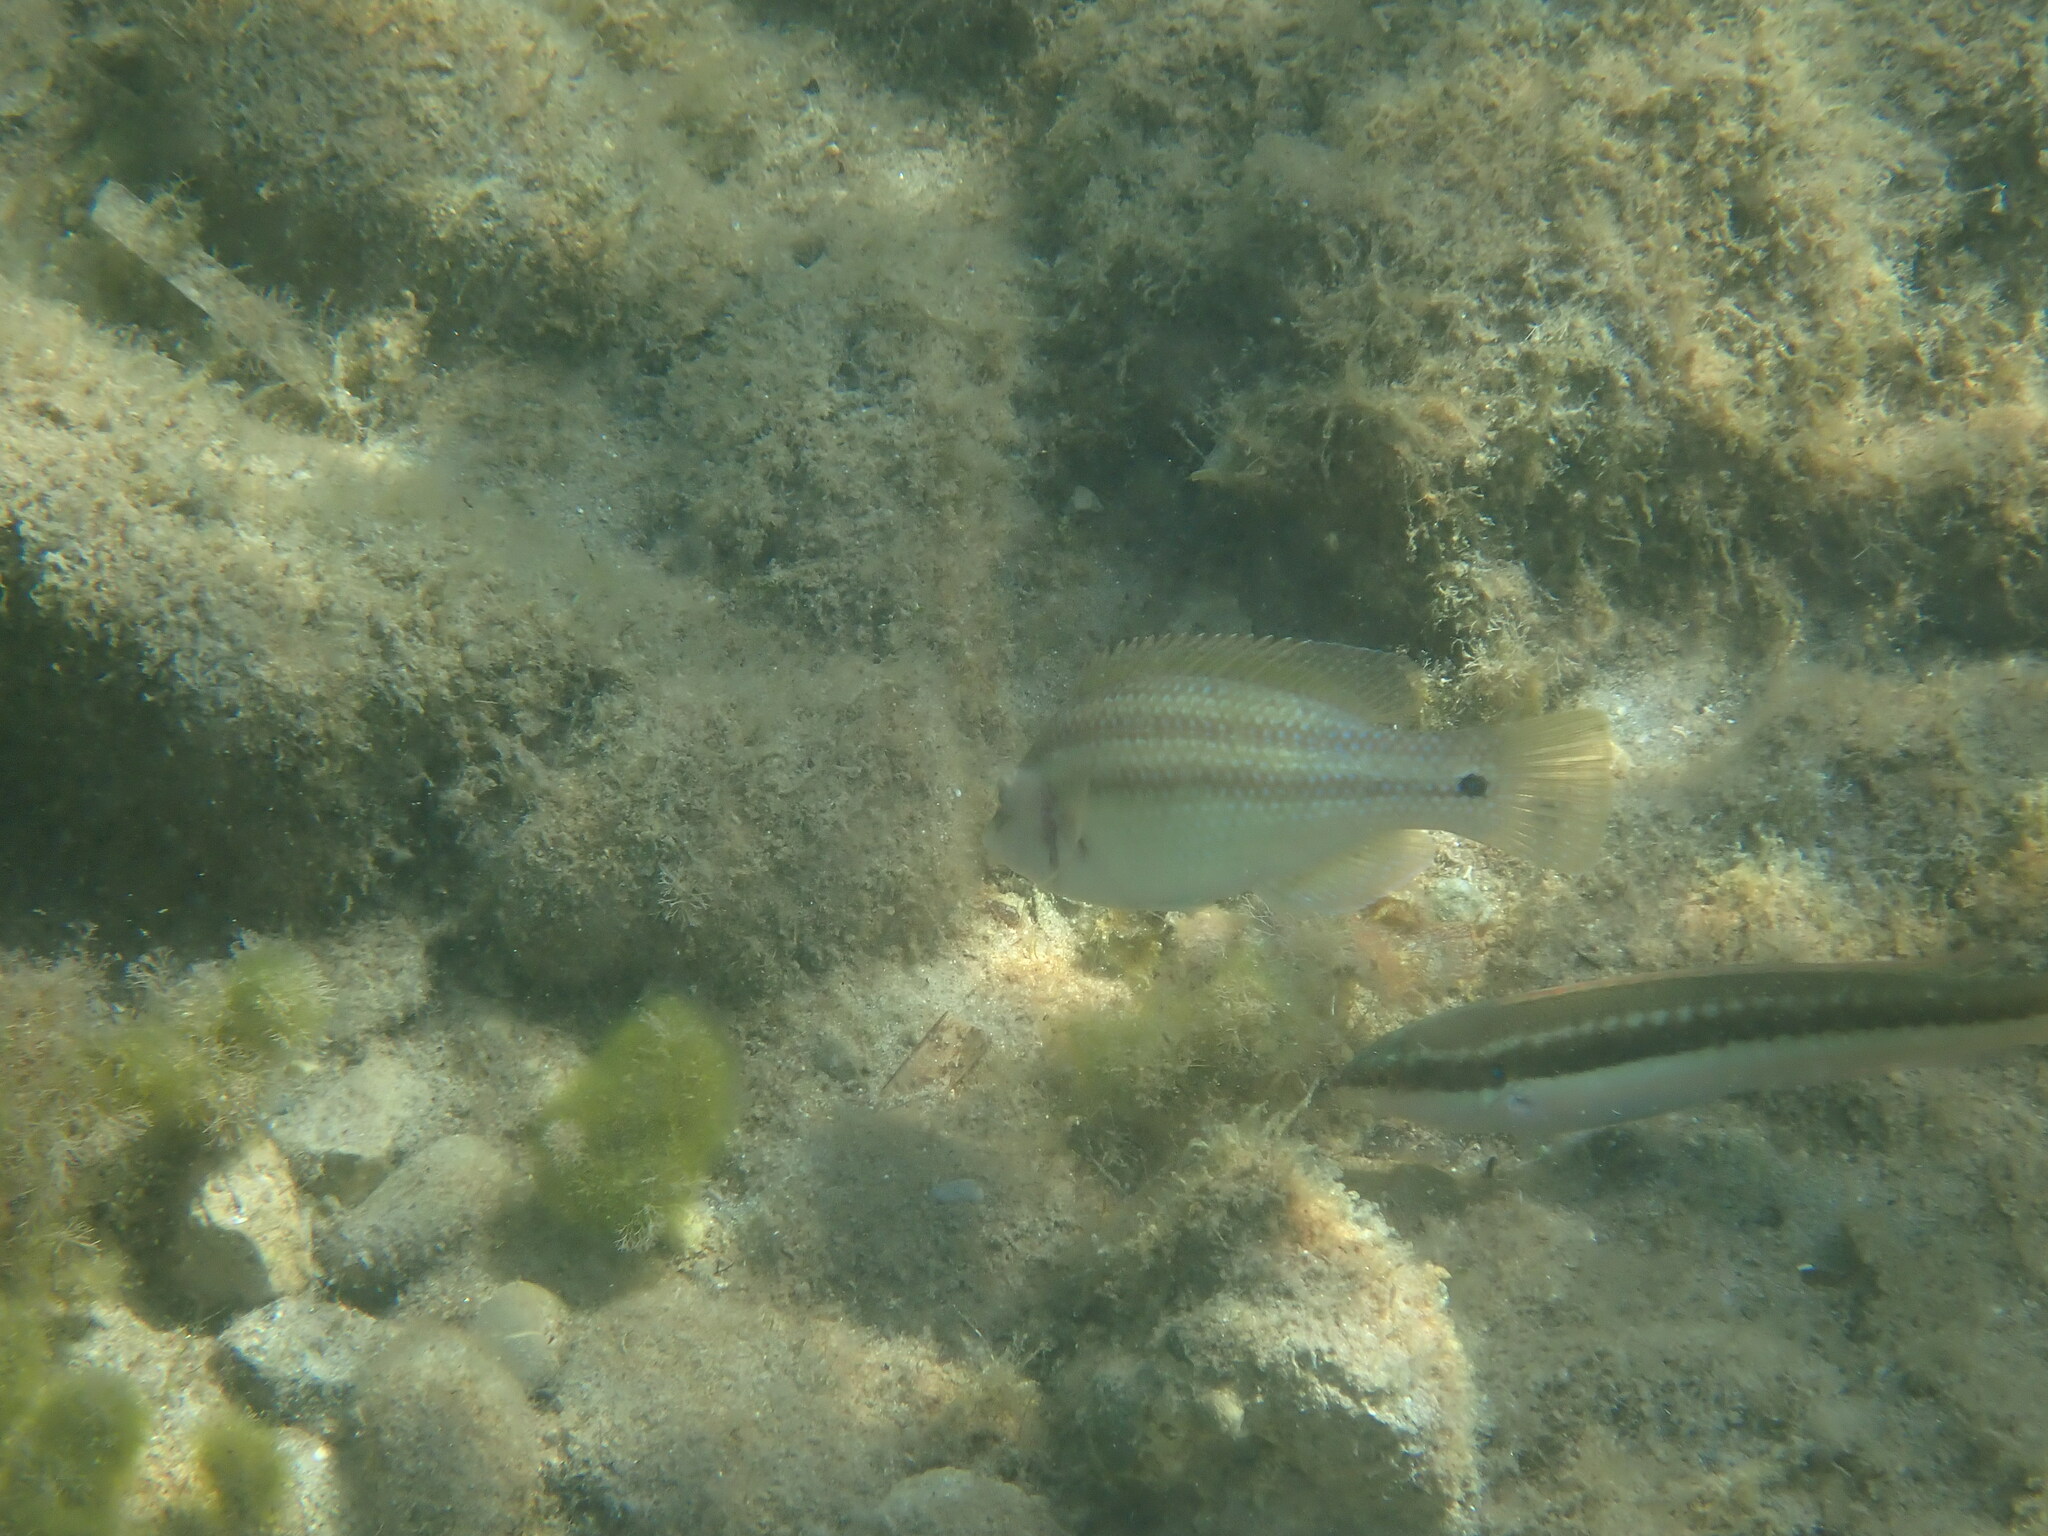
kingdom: Animalia
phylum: Chordata
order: Perciformes
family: Labridae
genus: Symphodus
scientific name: Symphodus tinca
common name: Peacock wrasse
